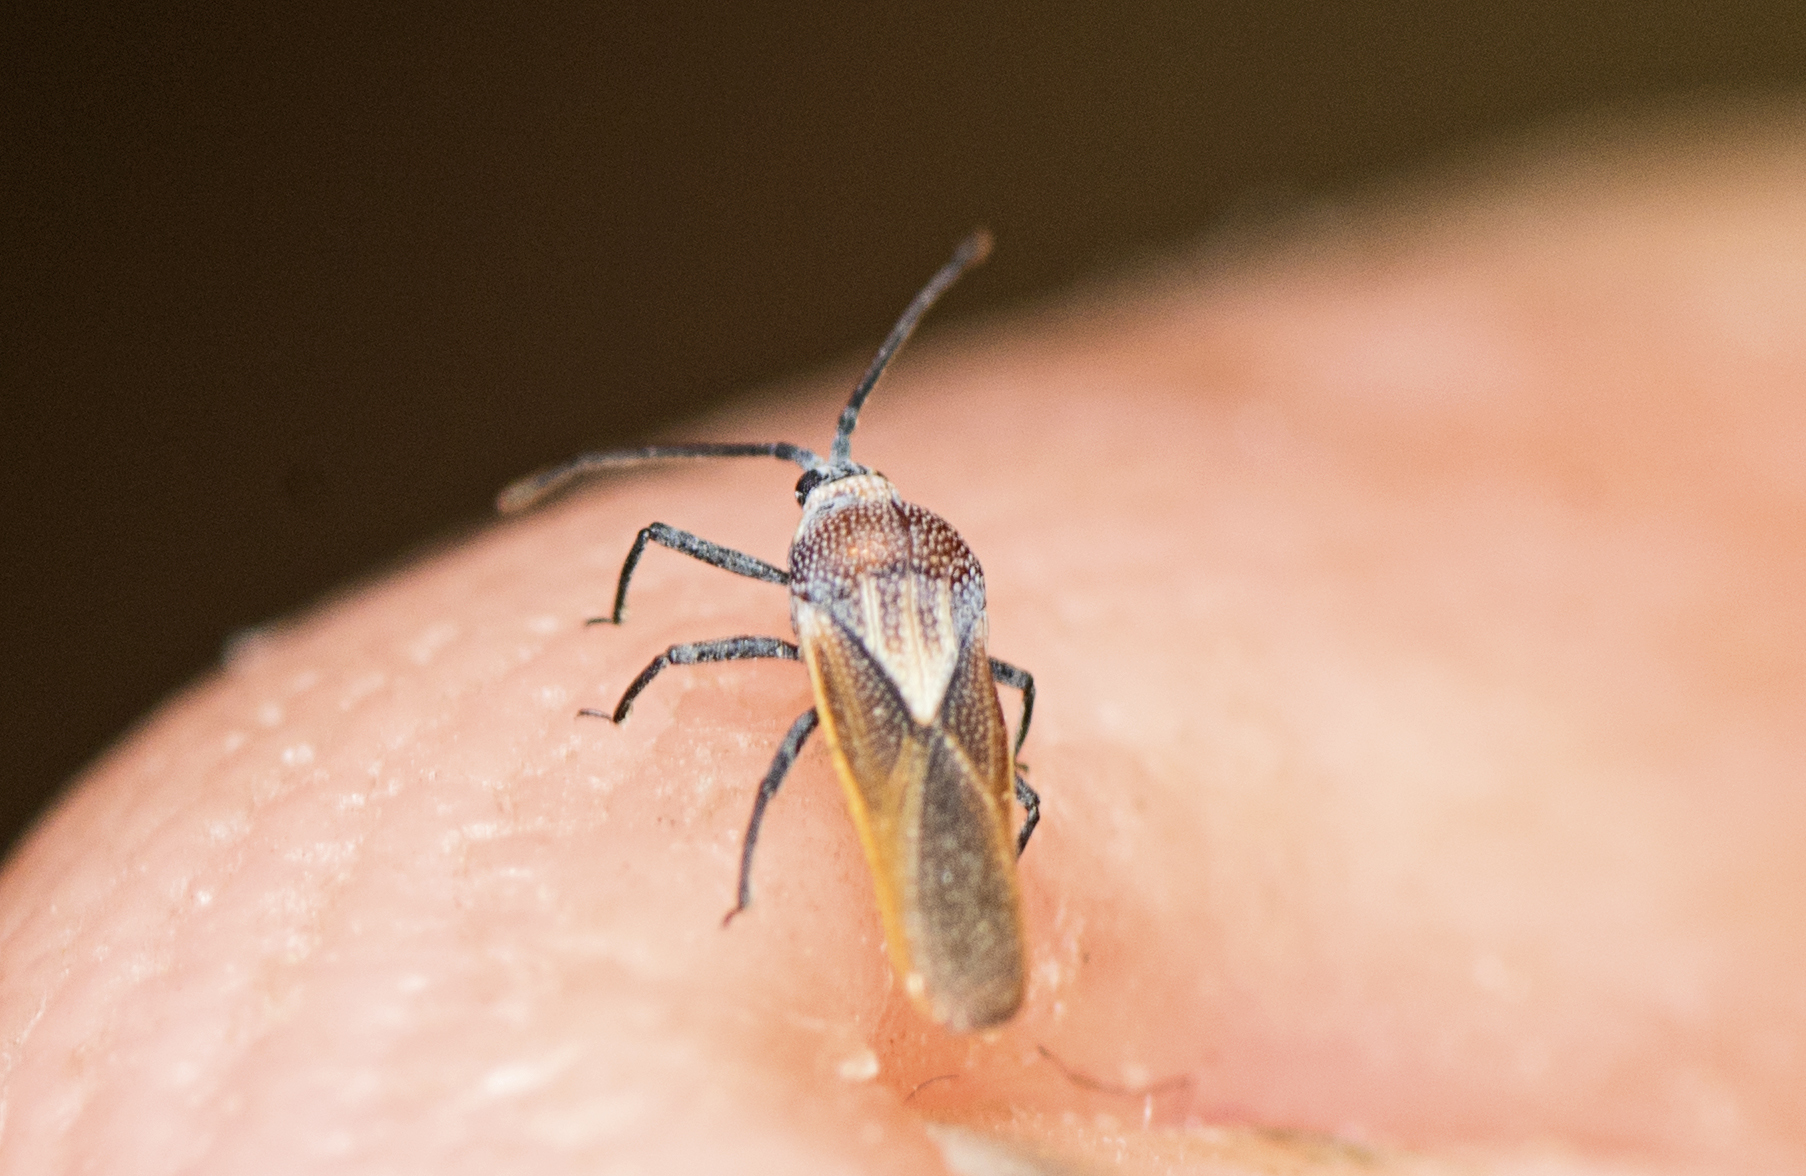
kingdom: Animalia
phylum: Arthropoda
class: Insecta
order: Hemiptera
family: Tingidae
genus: Epimixia
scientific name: Epimixia veteris
